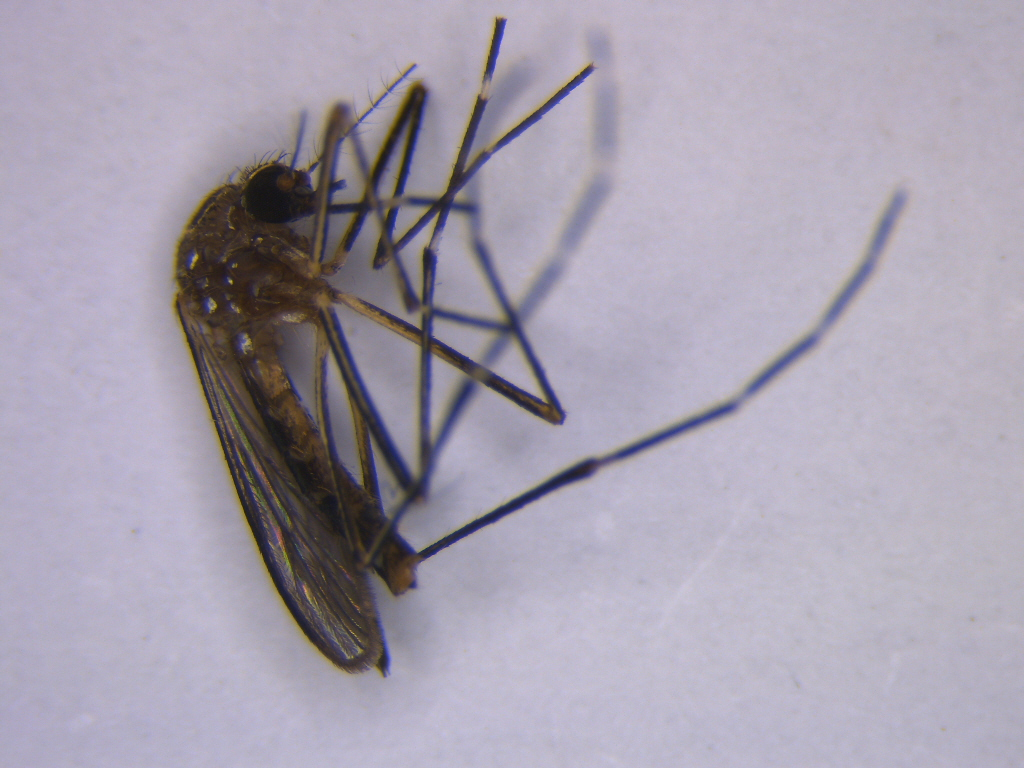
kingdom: Animalia
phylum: Arthropoda
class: Insecta
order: Diptera
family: Culicidae
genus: Aedes
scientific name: Aedes notoscriptus
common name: Australian backyard mosquito
